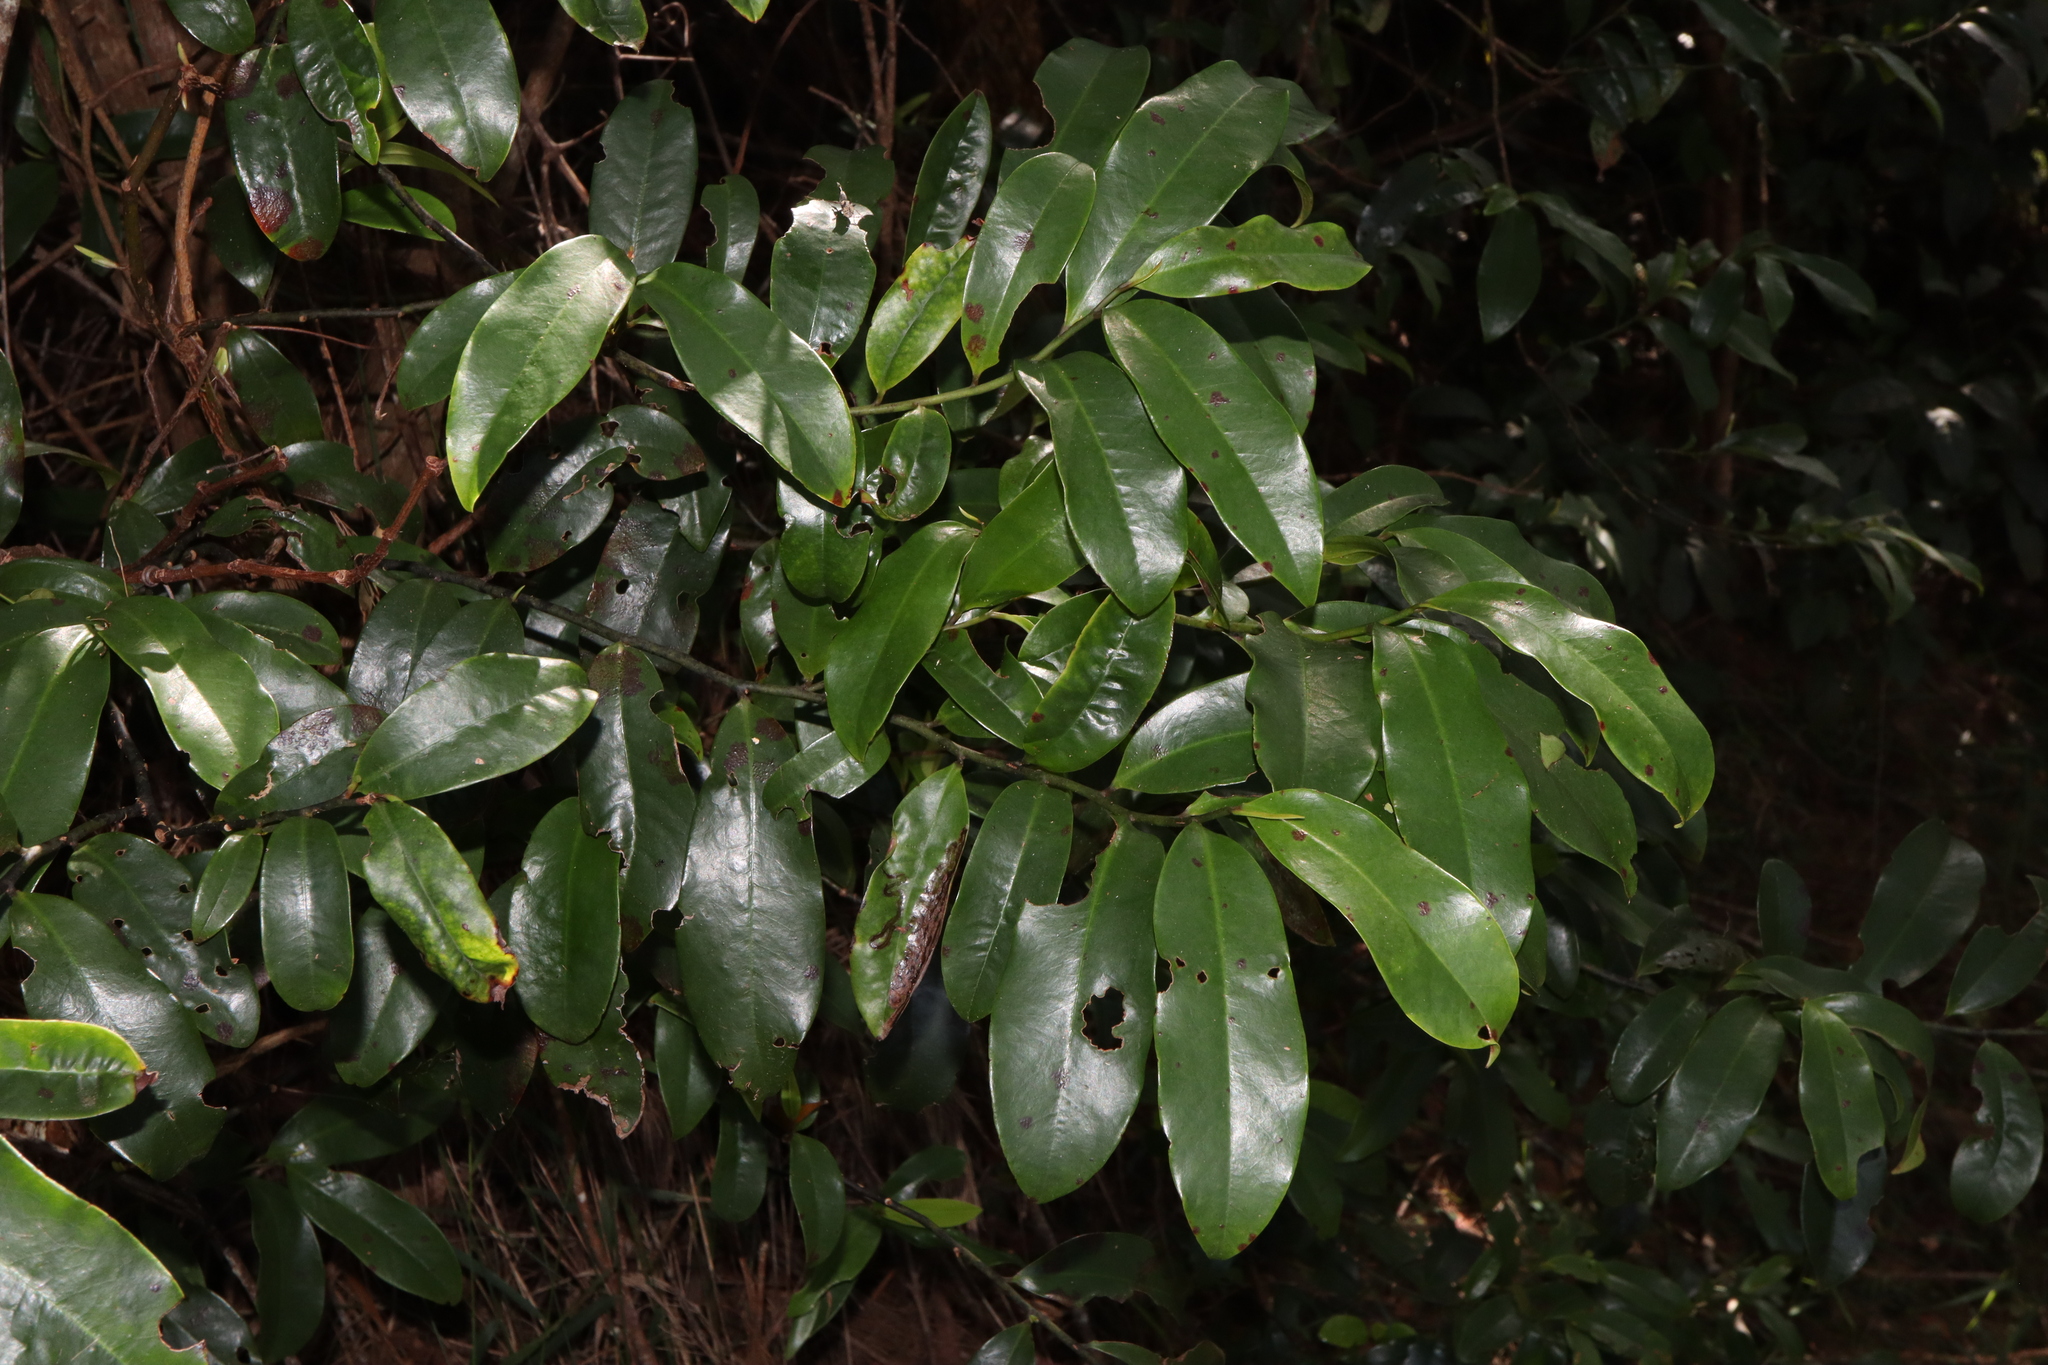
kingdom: Plantae
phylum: Tracheophyta
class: Magnoliopsida
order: Magnoliales
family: Eupomatiaceae
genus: Eupomatia
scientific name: Eupomatia laurina
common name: Bolwarra
